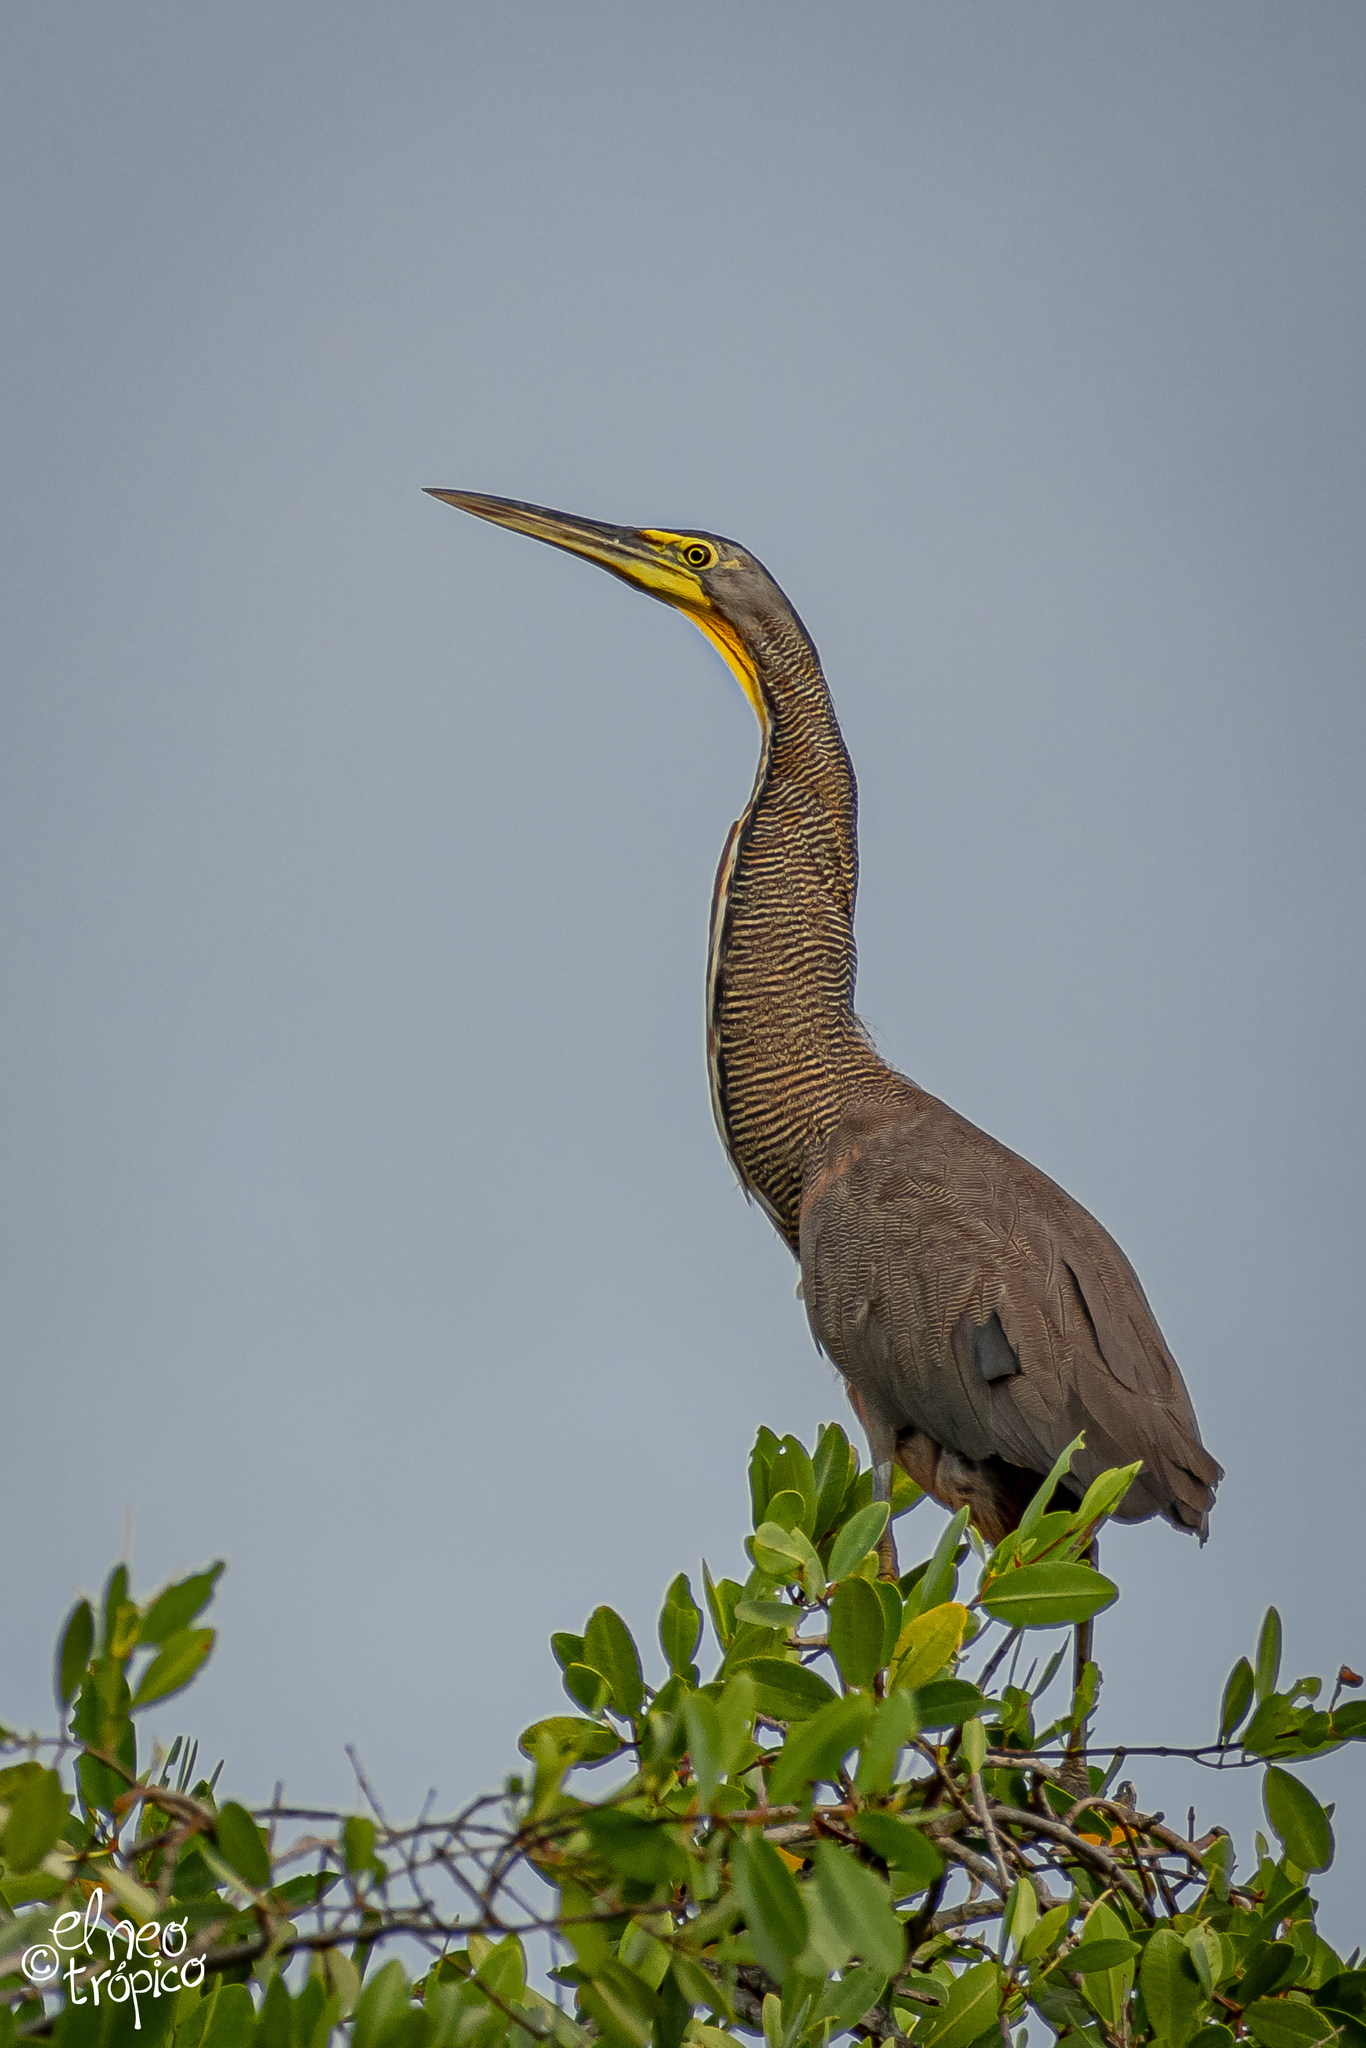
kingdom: Animalia
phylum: Chordata
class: Aves
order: Pelecaniformes
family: Ardeidae
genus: Tigrisoma
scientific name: Tigrisoma mexicanum
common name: Bare-throated tiger-heron
